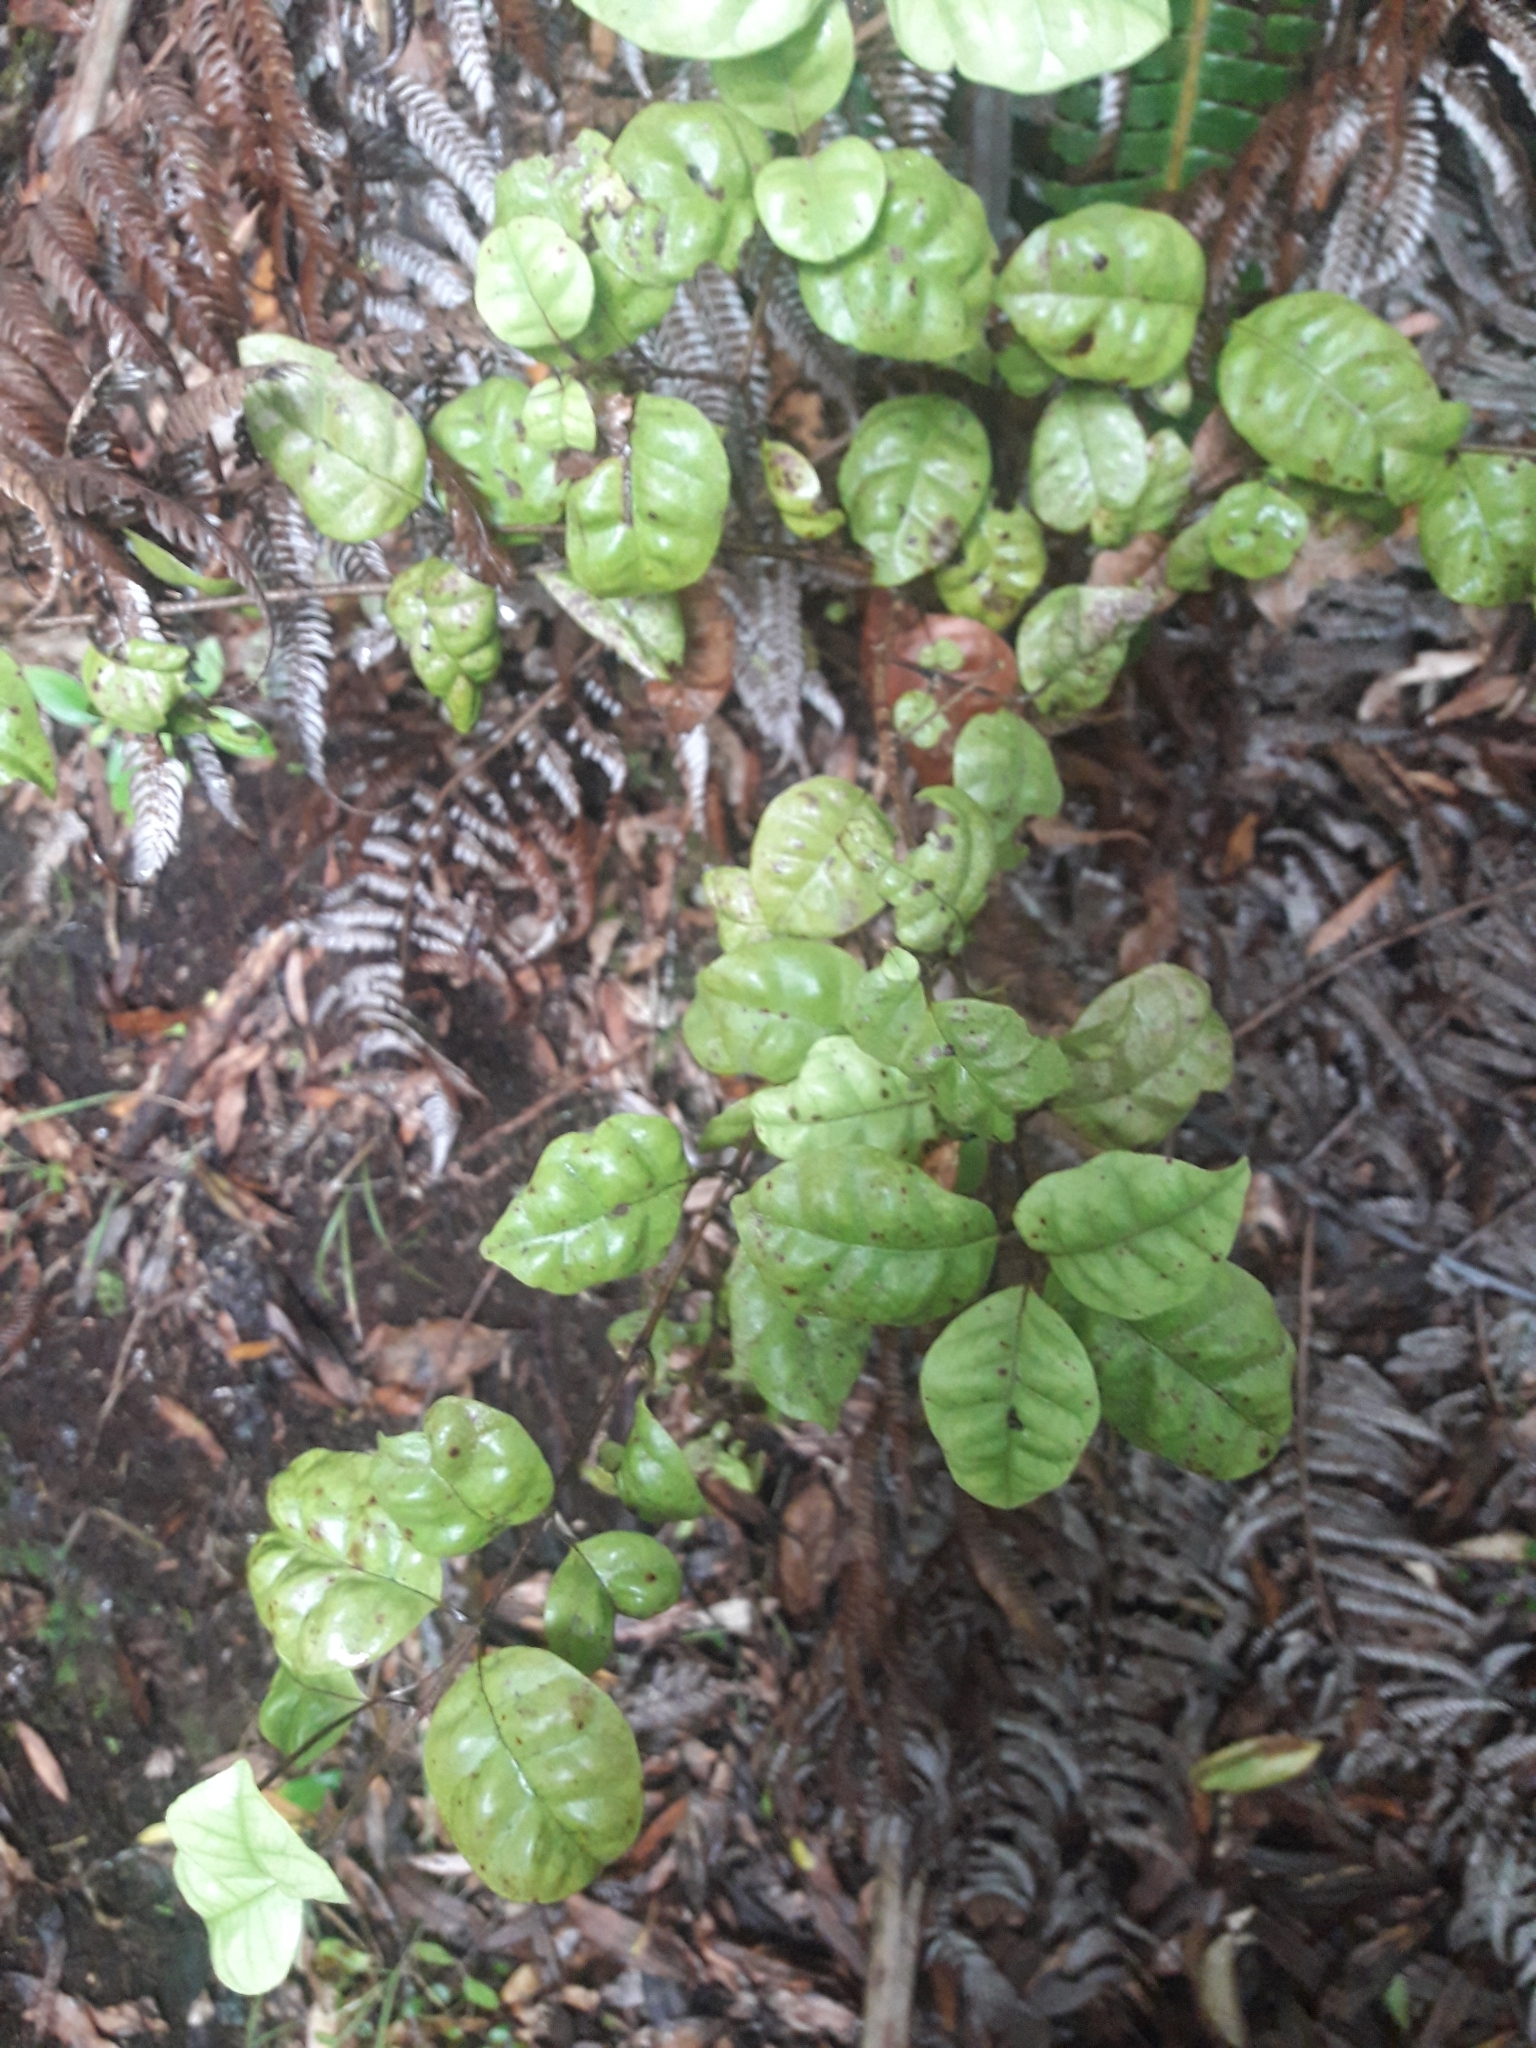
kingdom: Plantae
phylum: Tracheophyta
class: Magnoliopsida
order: Myrtales
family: Myrtaceae
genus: Lophomyrtus
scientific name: Lophomyrtus bullata
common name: Rama rama
